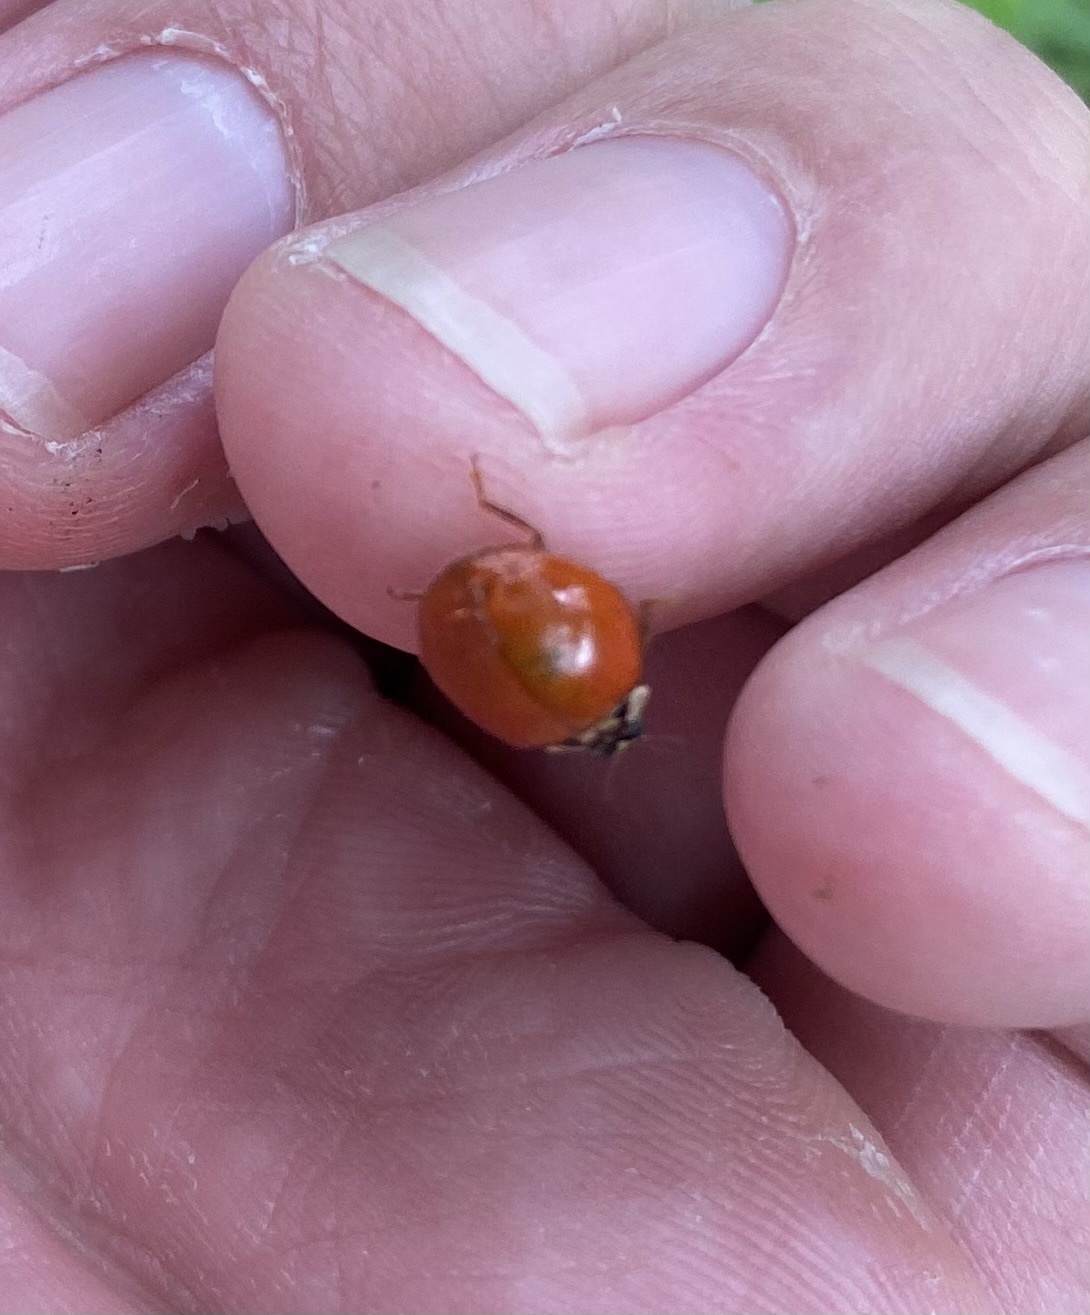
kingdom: Animalia
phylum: Arthropoda
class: Insecta
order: Coleoptera
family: Coccinellidae
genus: Harmonia
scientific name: Harmonia axyridis
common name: Harlequin ladybird
